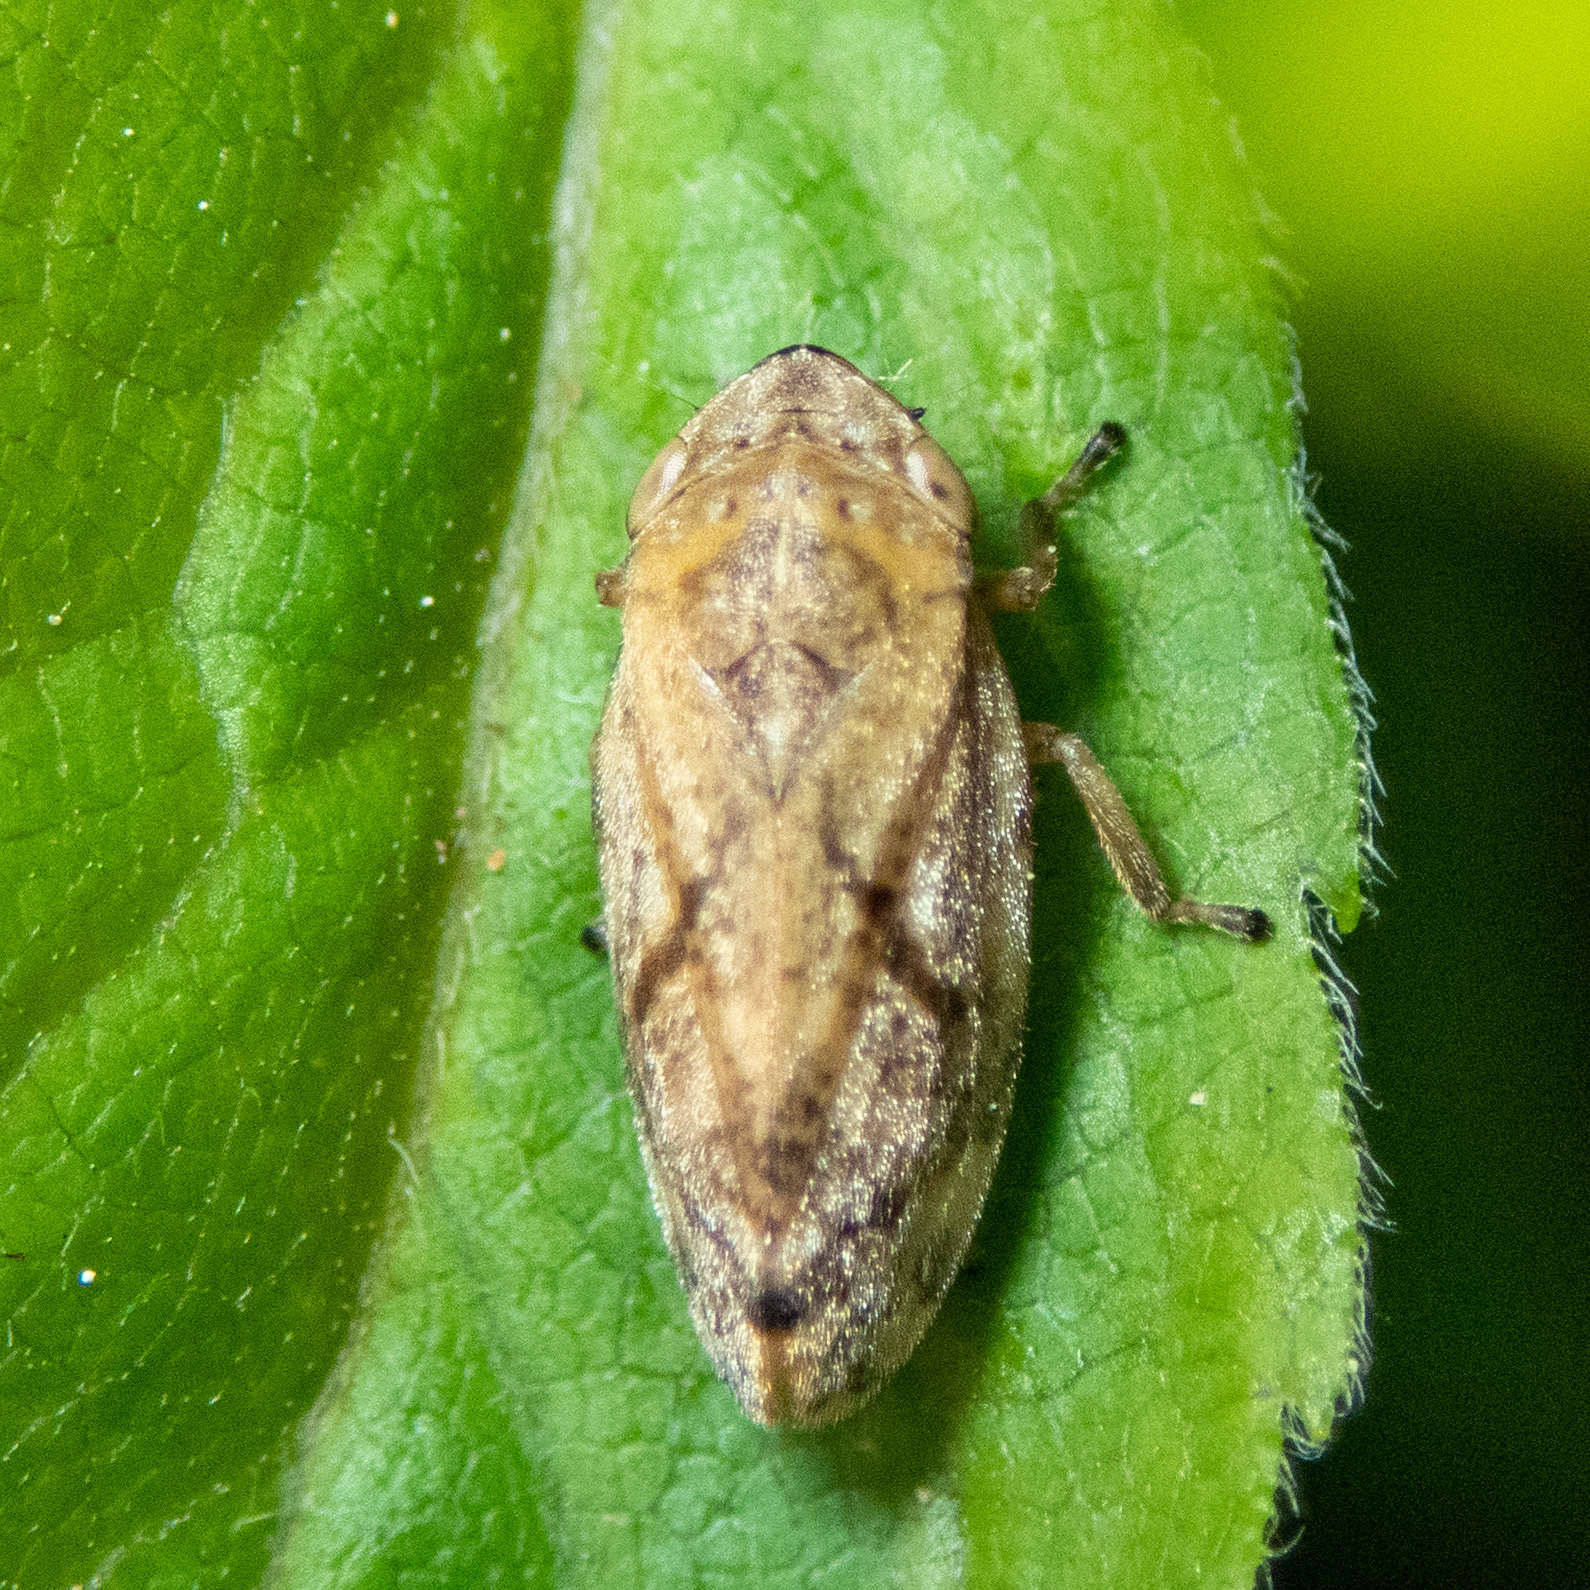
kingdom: Animalia
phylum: Arthropoda
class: Insecta
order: Hemiptera
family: Aphrophoridae
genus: Philaenus
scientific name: Philaenus spumarius
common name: Meadow spittlebug
